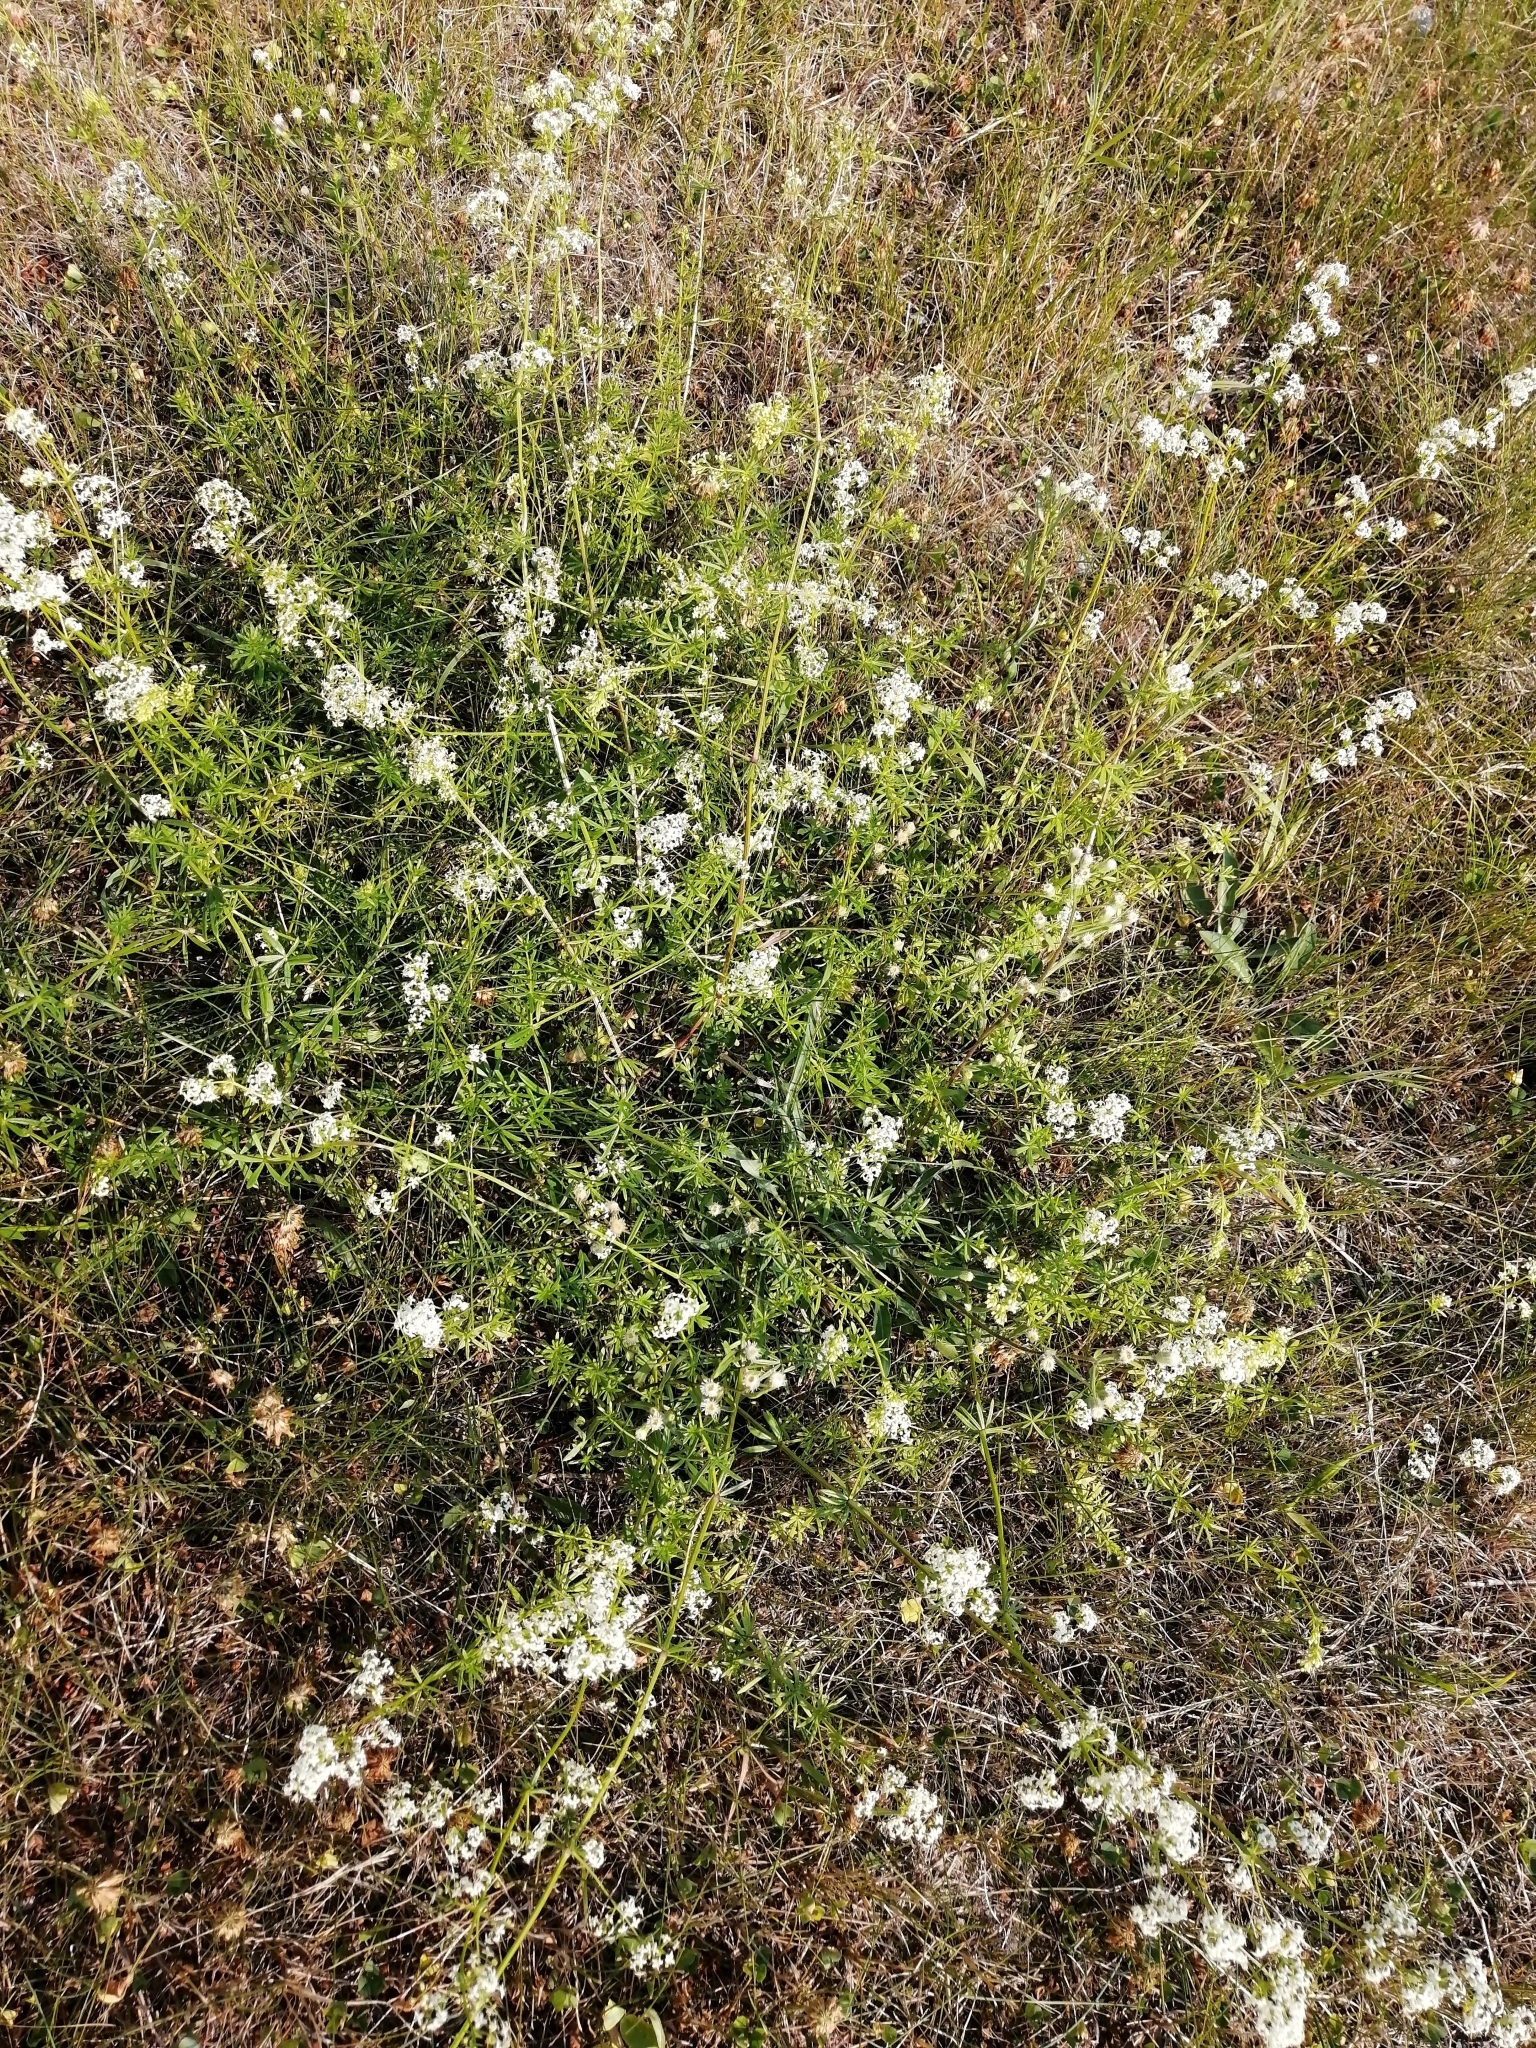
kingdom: Plantae
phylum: Tracheophyta
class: Magnoliopsida
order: Gentianales
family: Rubiaceae
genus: Galium
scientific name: Galium mollugo
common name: Hedge bedstraw
